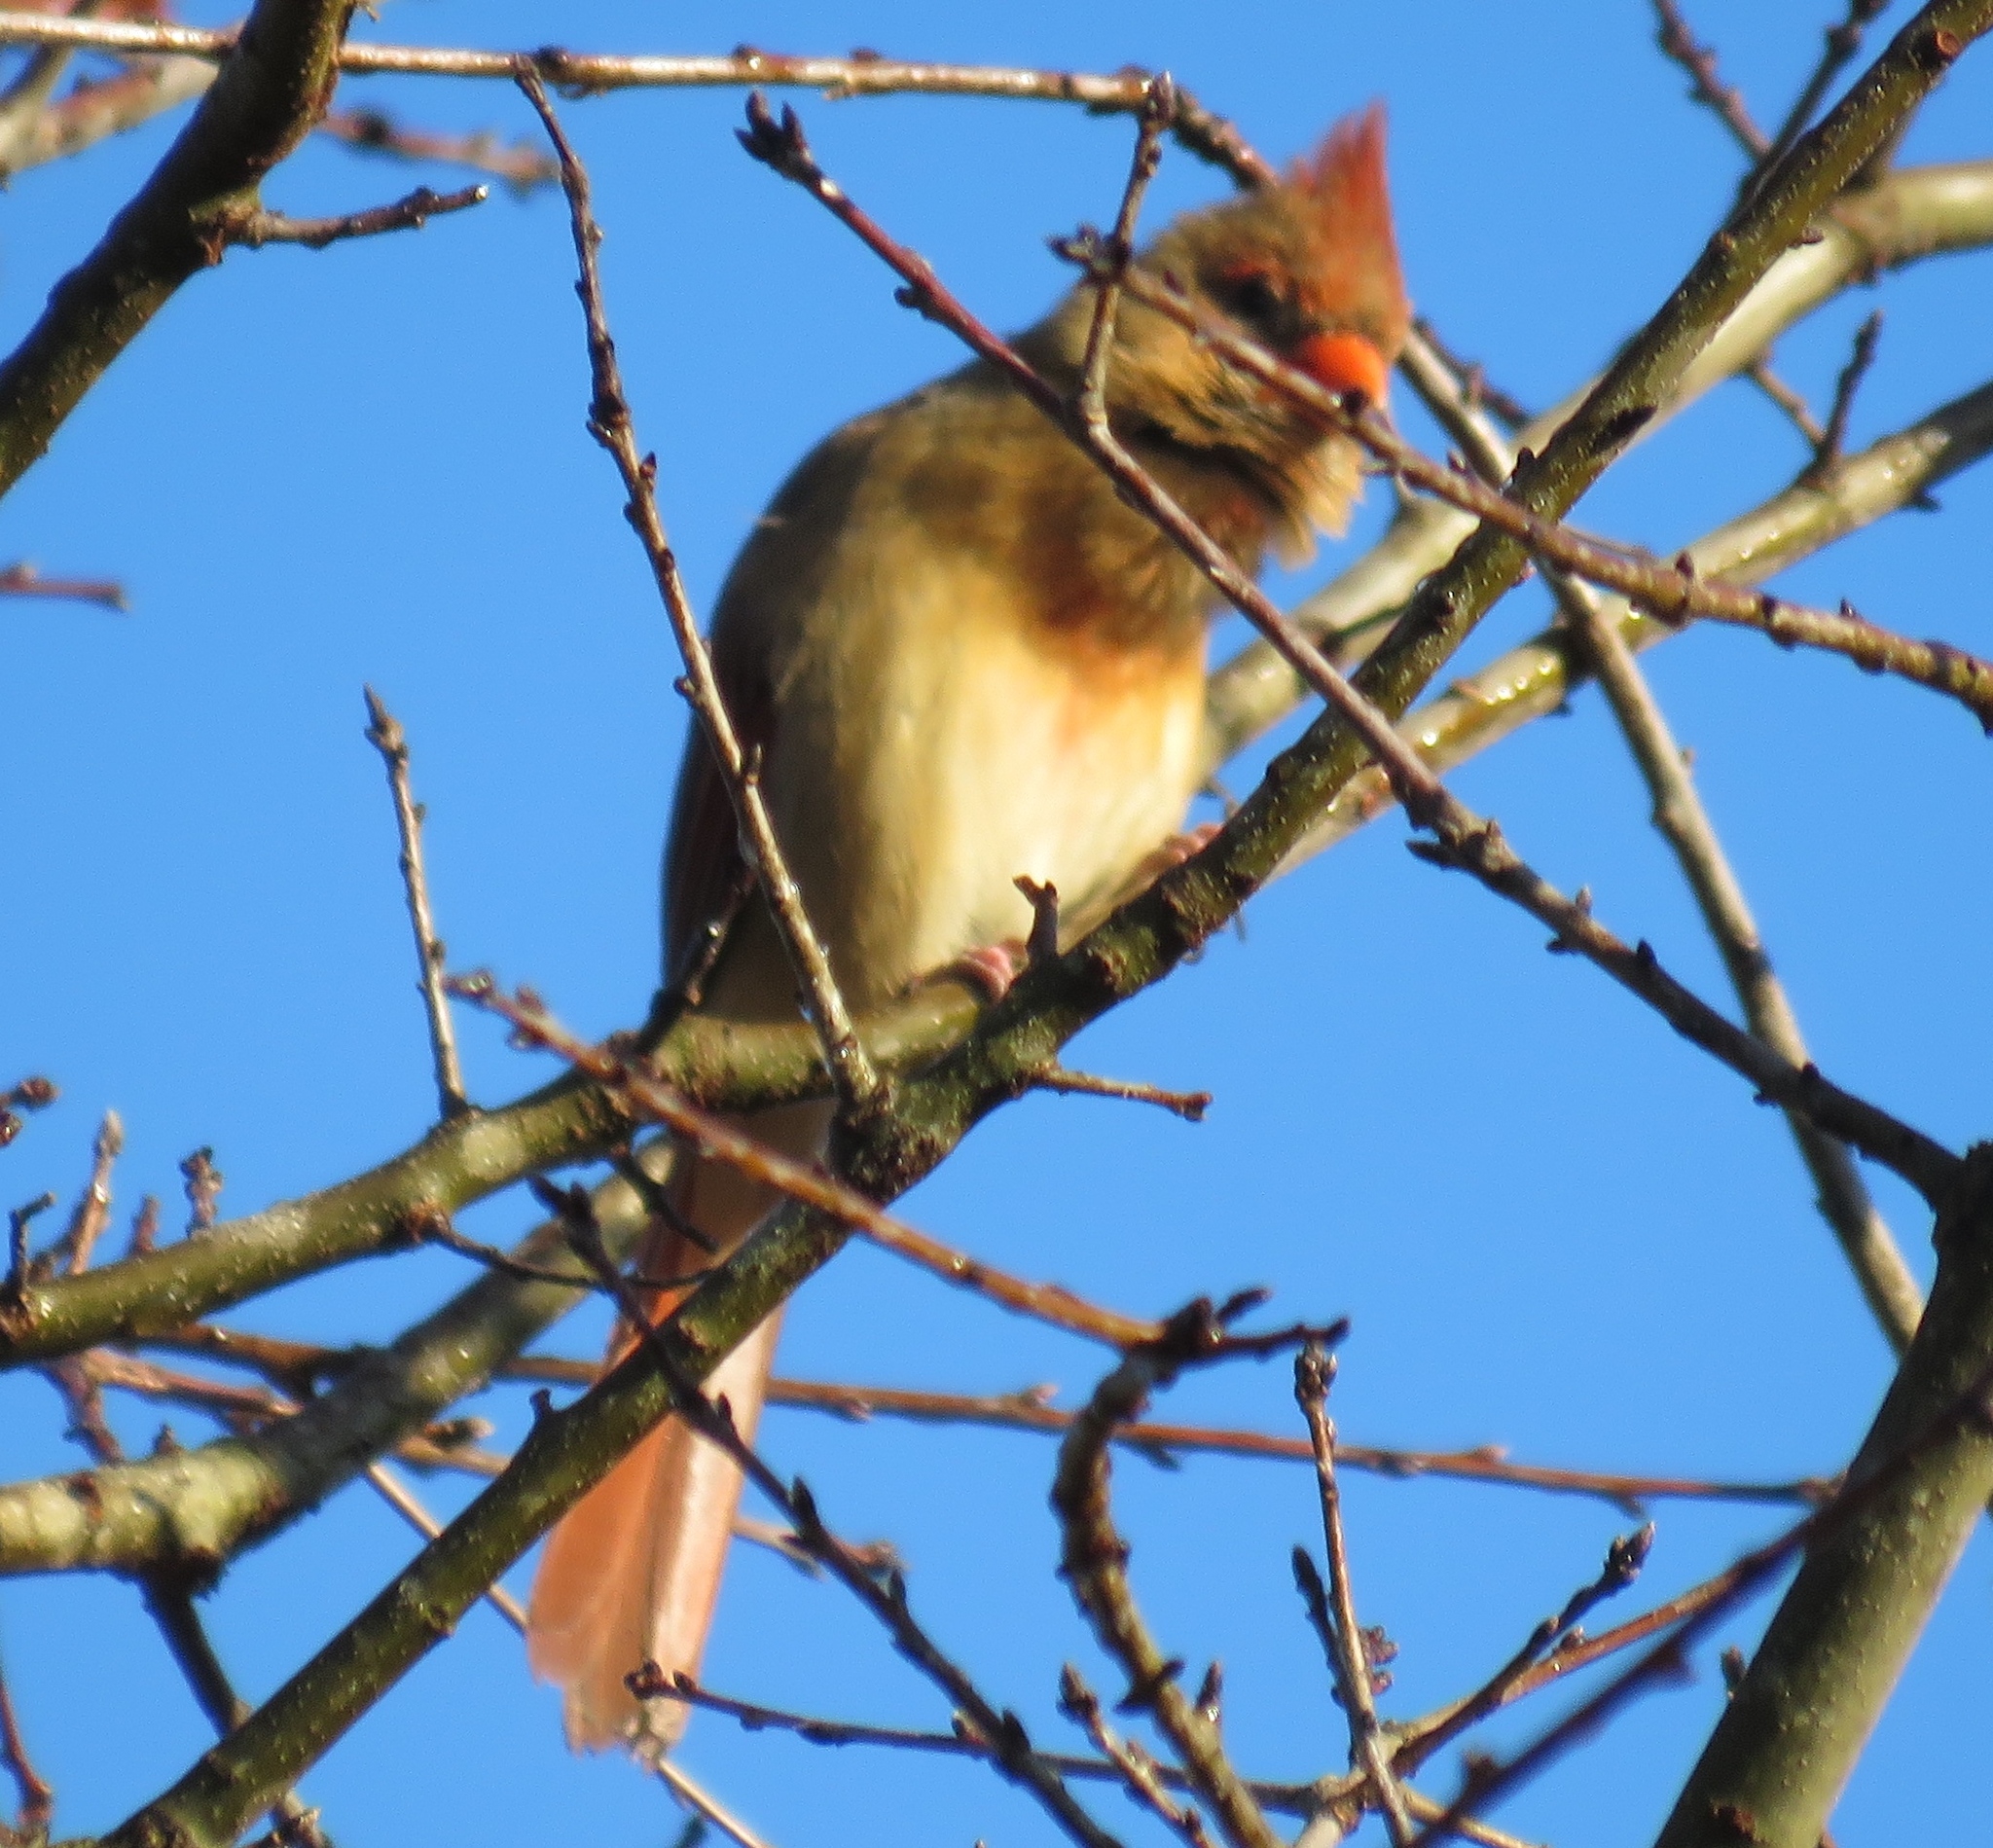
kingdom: Animalia
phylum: Chordata
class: Aves
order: Passeriformes
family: Cardinalidae
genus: Cardinalis
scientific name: Cardinalis cardinalis
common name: Northern cardinal
